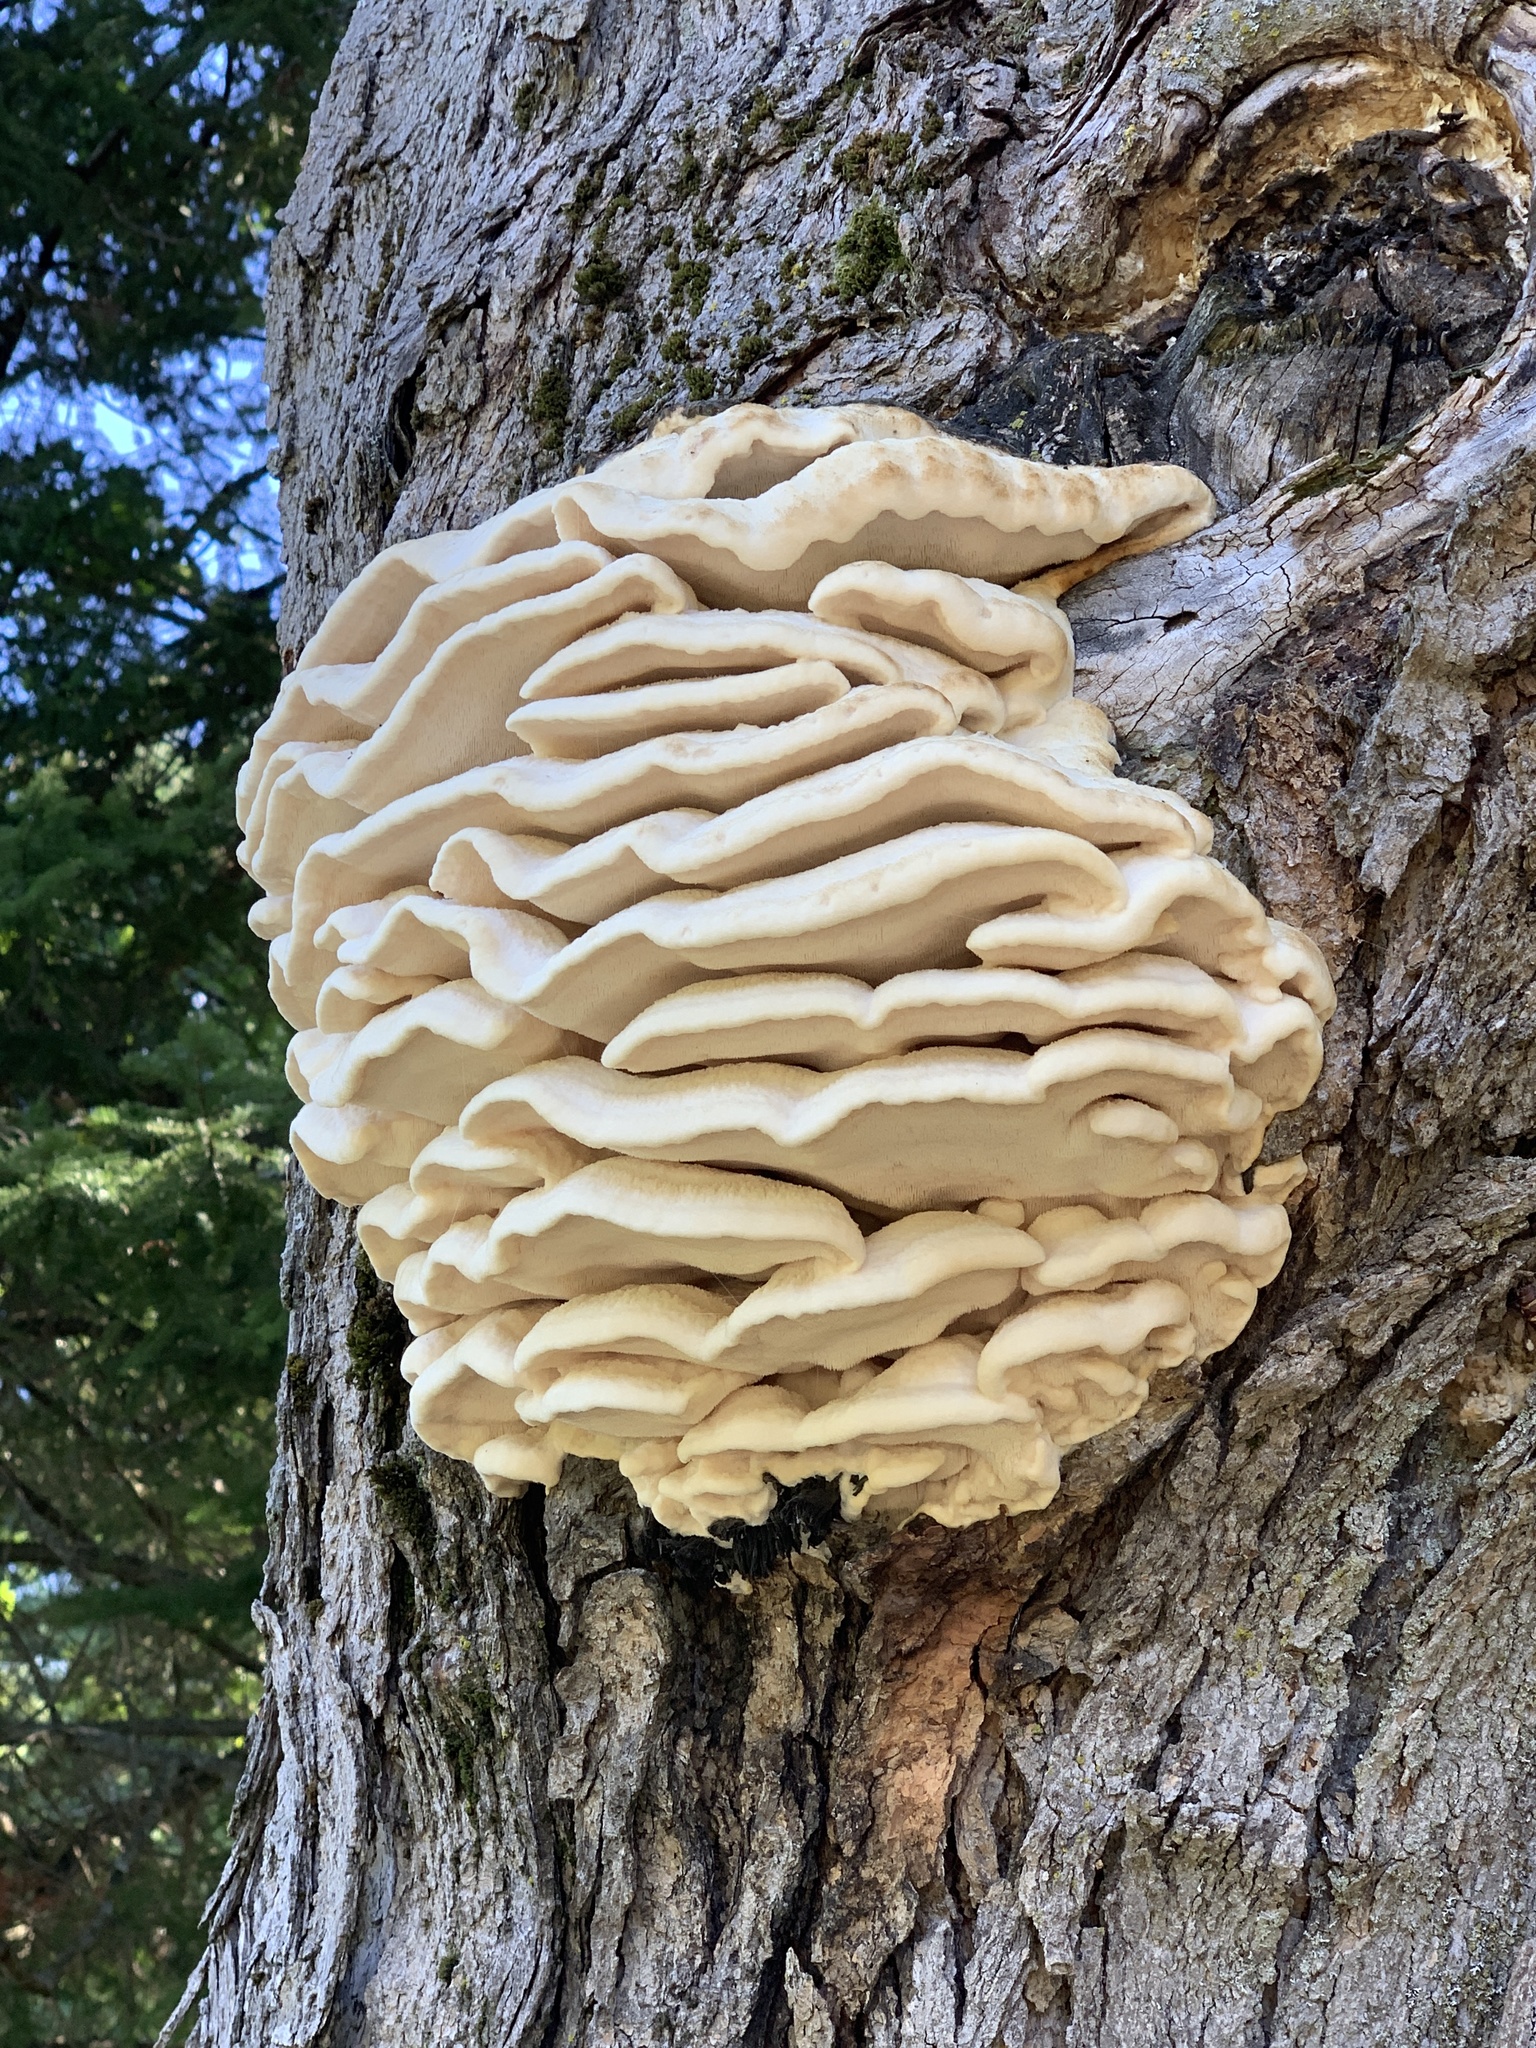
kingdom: Fungi
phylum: Basidiomycota
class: Agaricomycetes
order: Polyporales
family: Meruliaceae
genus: Climacodon
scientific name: Climacodon septentrionalis
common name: Northern tooth
